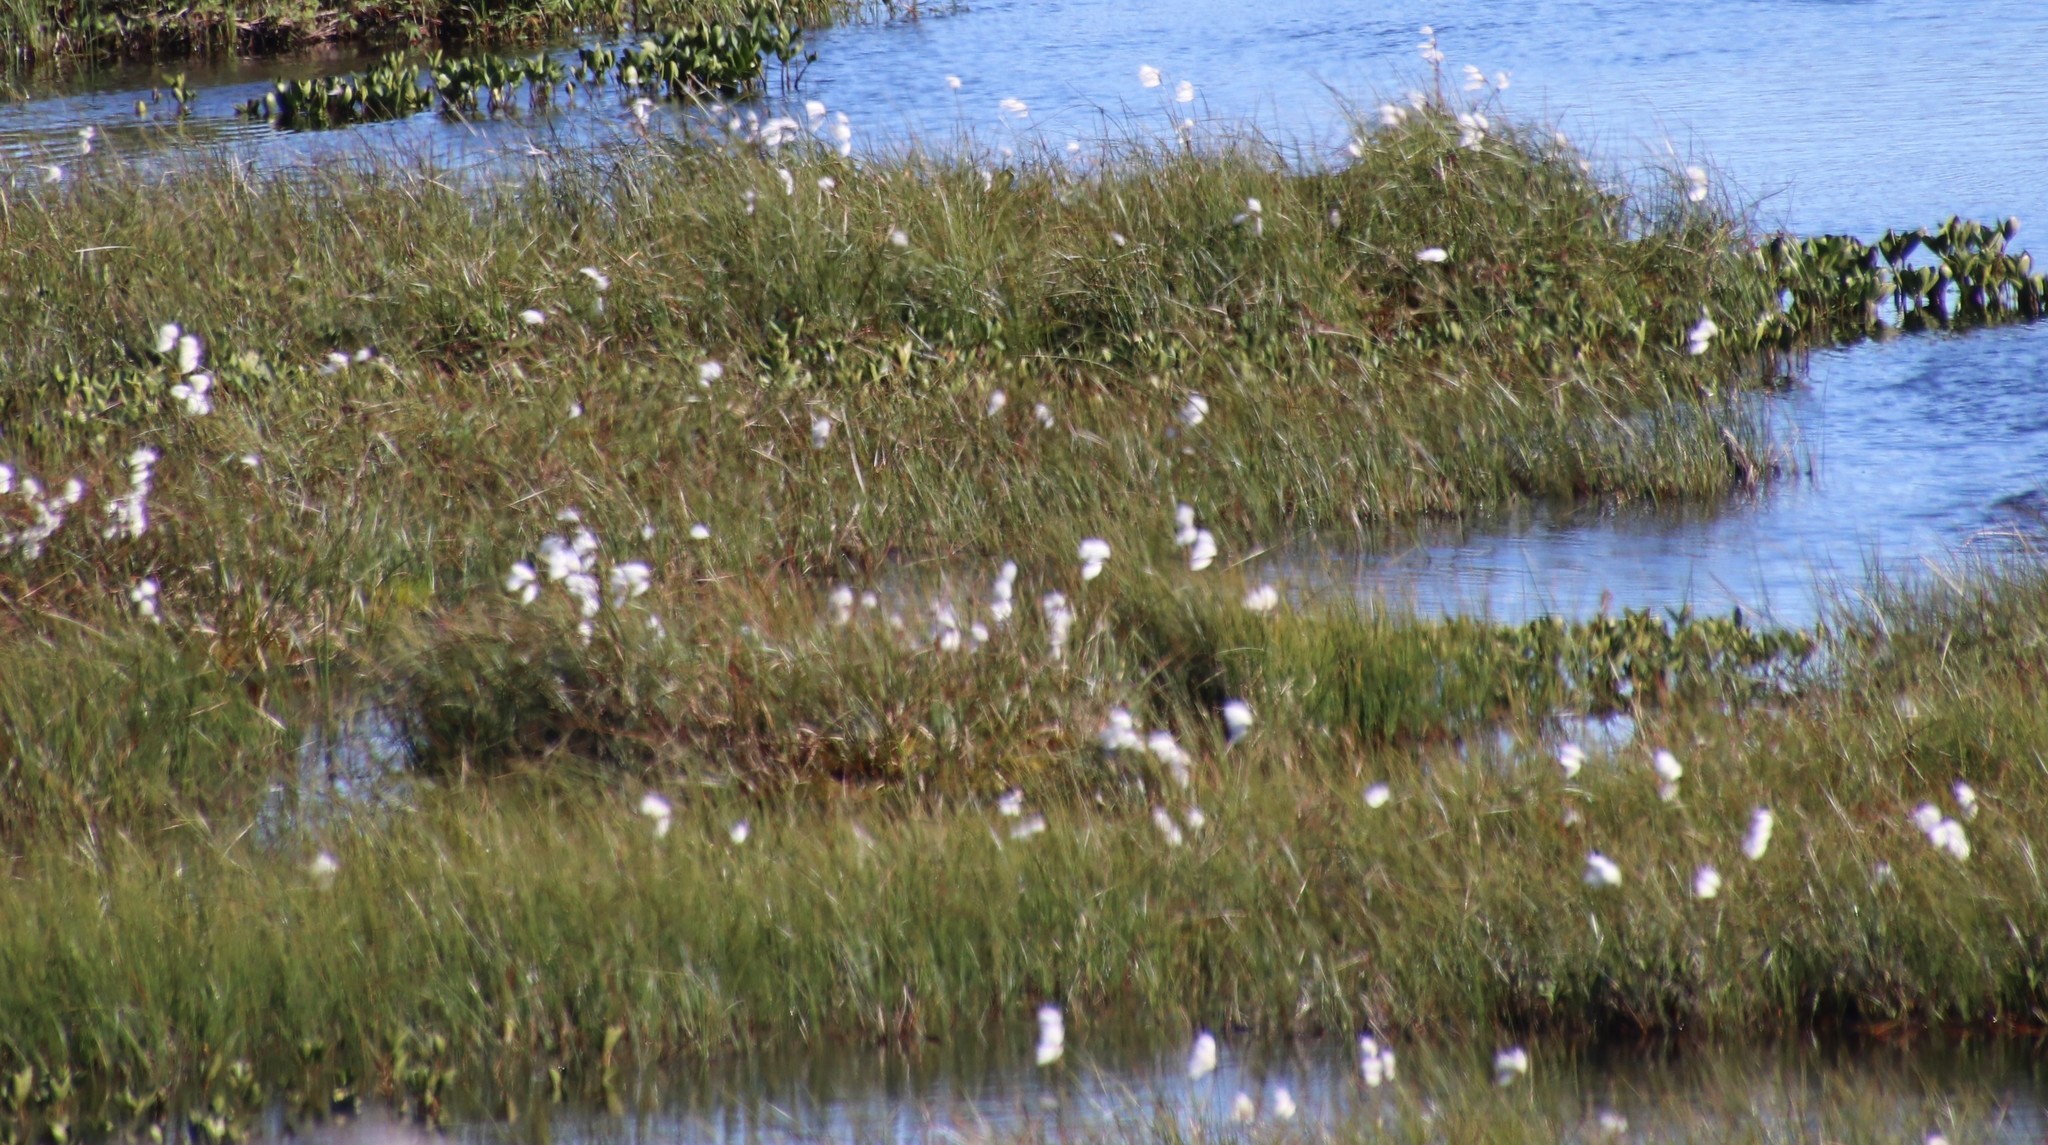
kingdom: Plantae
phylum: Tracheophyta
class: Liliopsida
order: Poales
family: Cyperaceae
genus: Eriophorum
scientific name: Eriophorum angustifolium
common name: Common cottongrass
